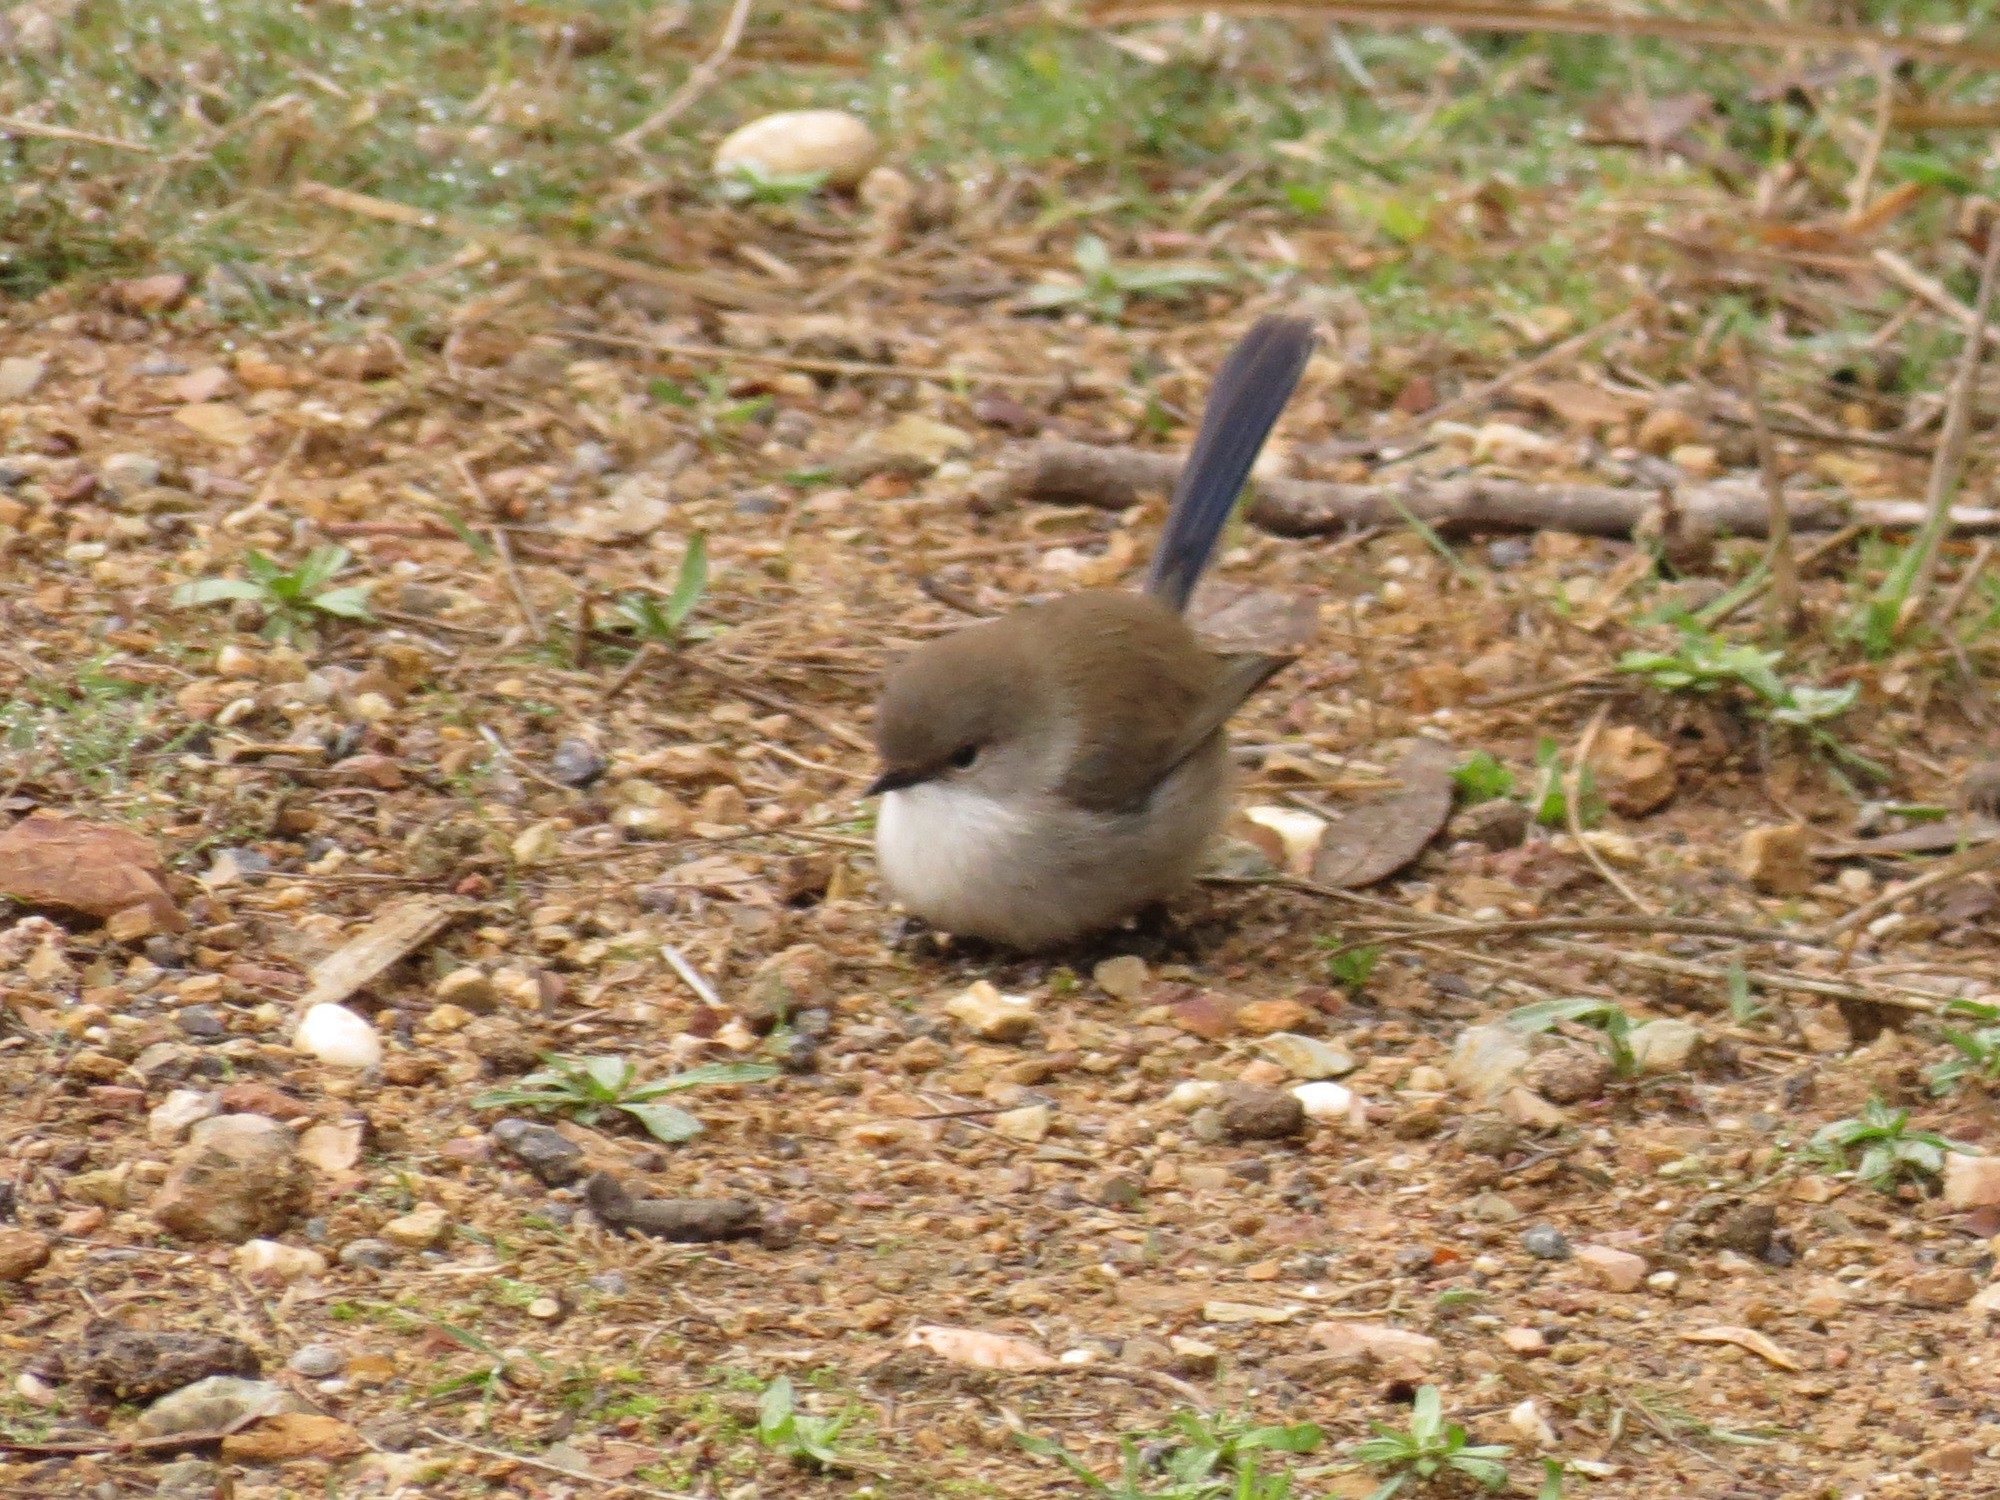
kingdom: Animalia
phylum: Chordata
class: Aves
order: Passeriformes
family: Maluridae
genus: Malurus
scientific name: Malurus cyaneus
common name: Superb fairywren
